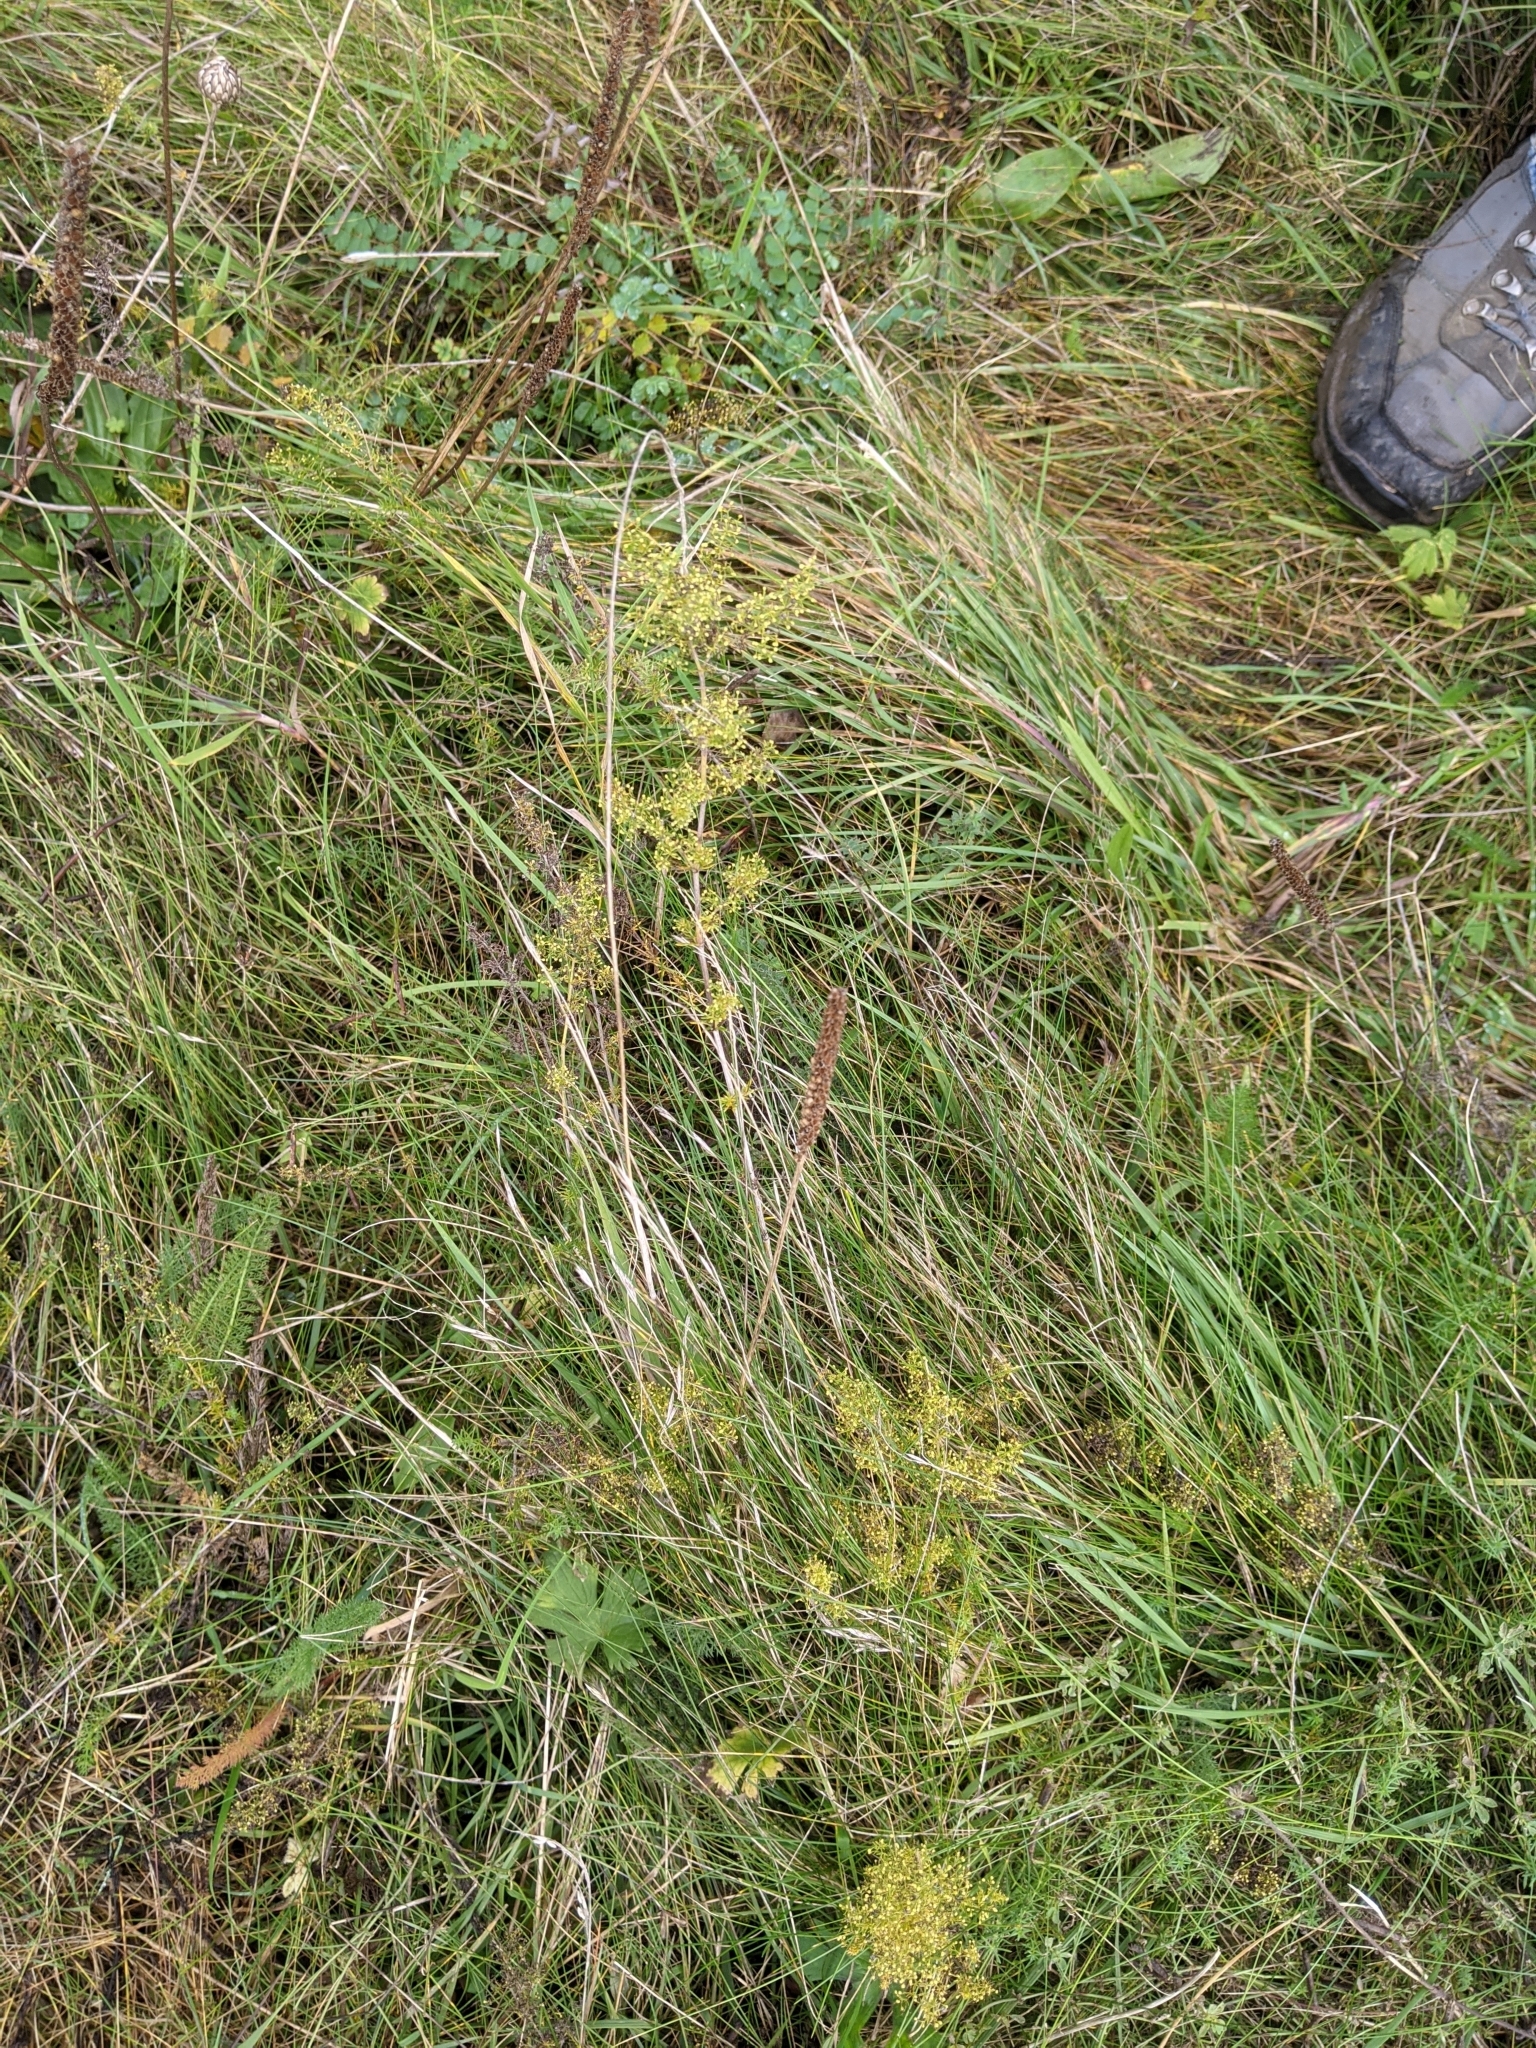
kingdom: Plantae
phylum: Tracheophyta
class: Magnoliopsida
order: Gentianales
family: Rubiaceae
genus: Galium
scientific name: Galium verum
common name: Lady's bedstraw
